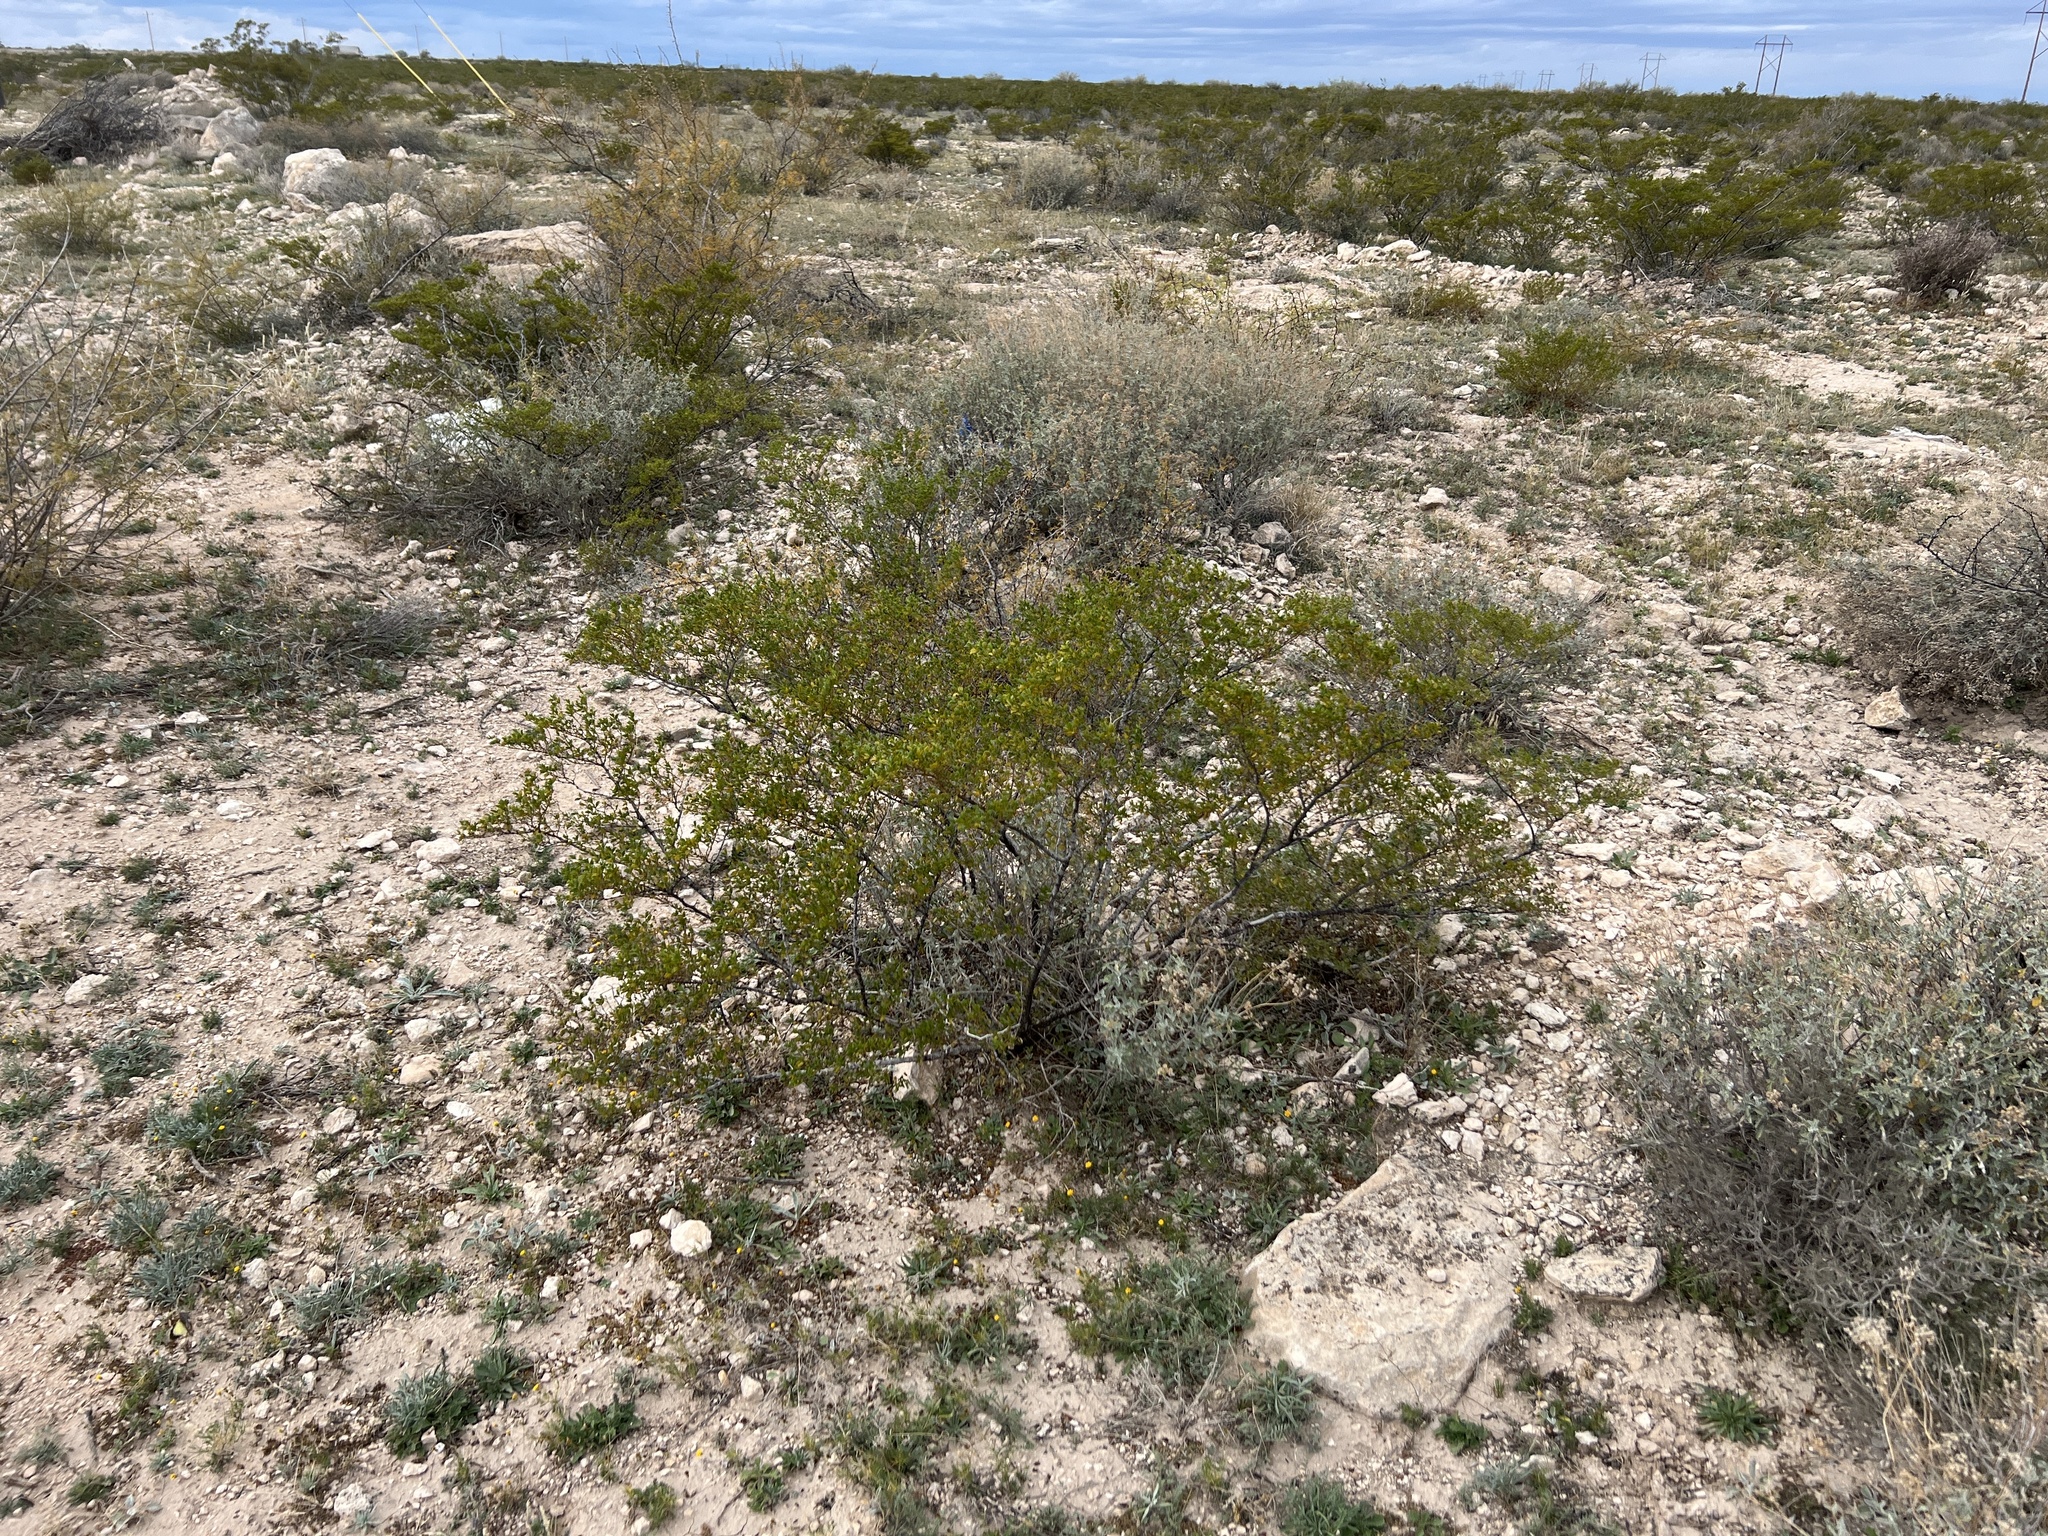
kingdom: Plantae
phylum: Tracheophyta
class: Magnoliopsida
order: Zygophyllales
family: Zygophyllaceae
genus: Larrea
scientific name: Larrea tridentata
